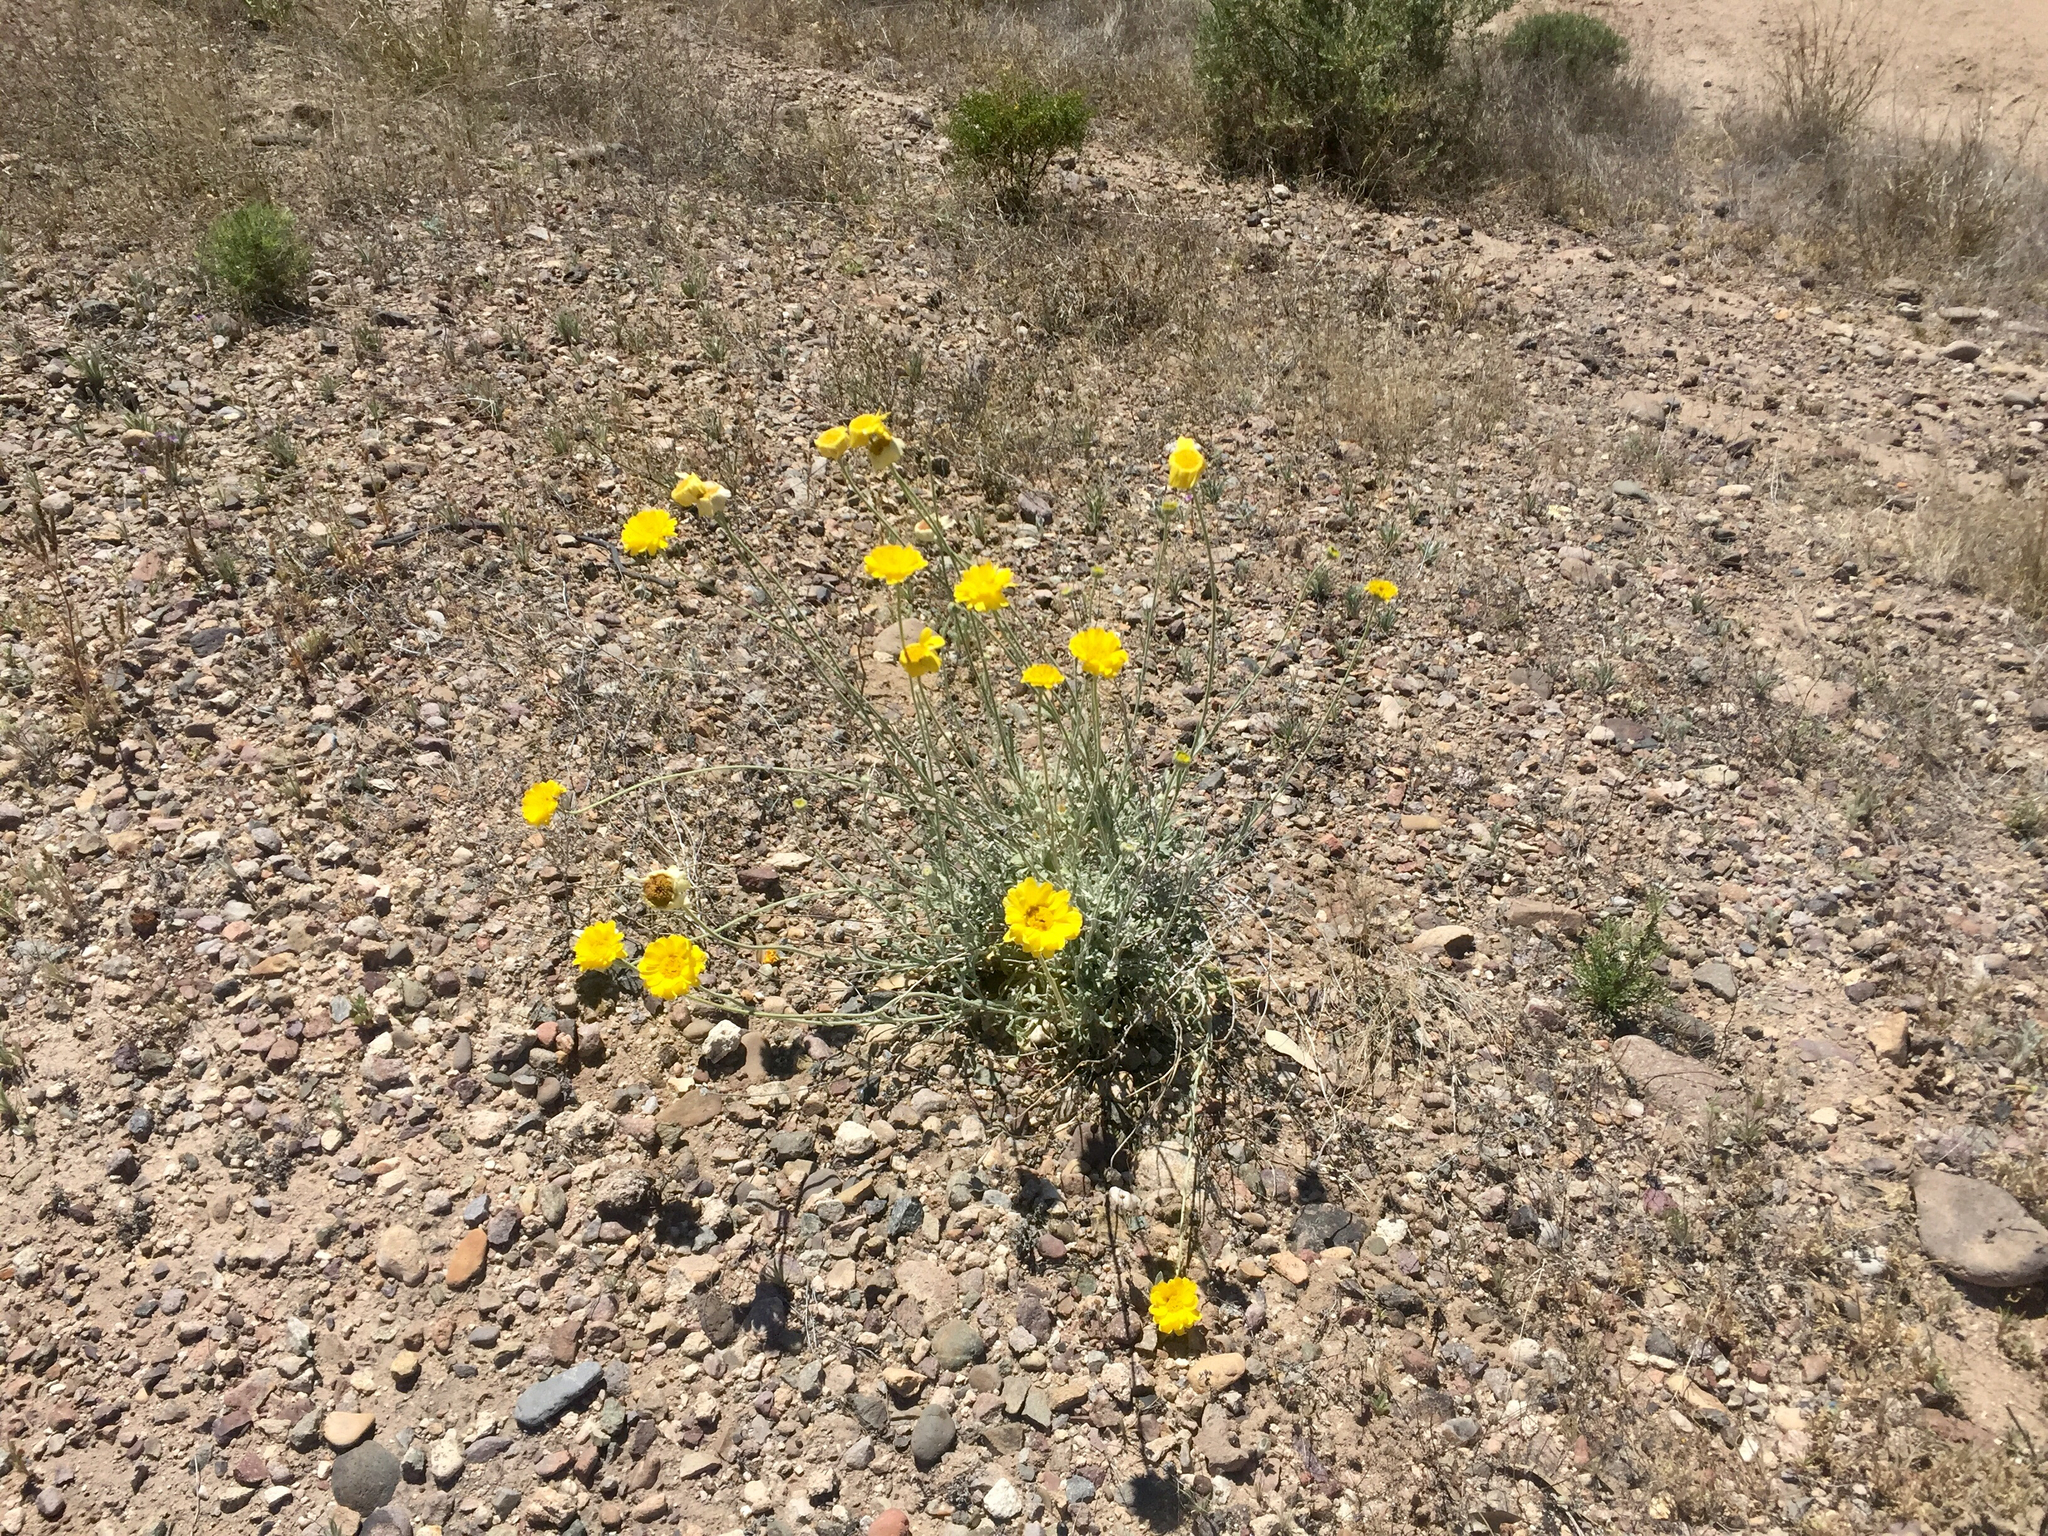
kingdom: Plantae
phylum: Tracheophyta
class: Magnoliopsida
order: Asterales
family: Asteraceae
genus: Baileya
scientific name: Baileya multiradiata
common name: Desert-marigold
